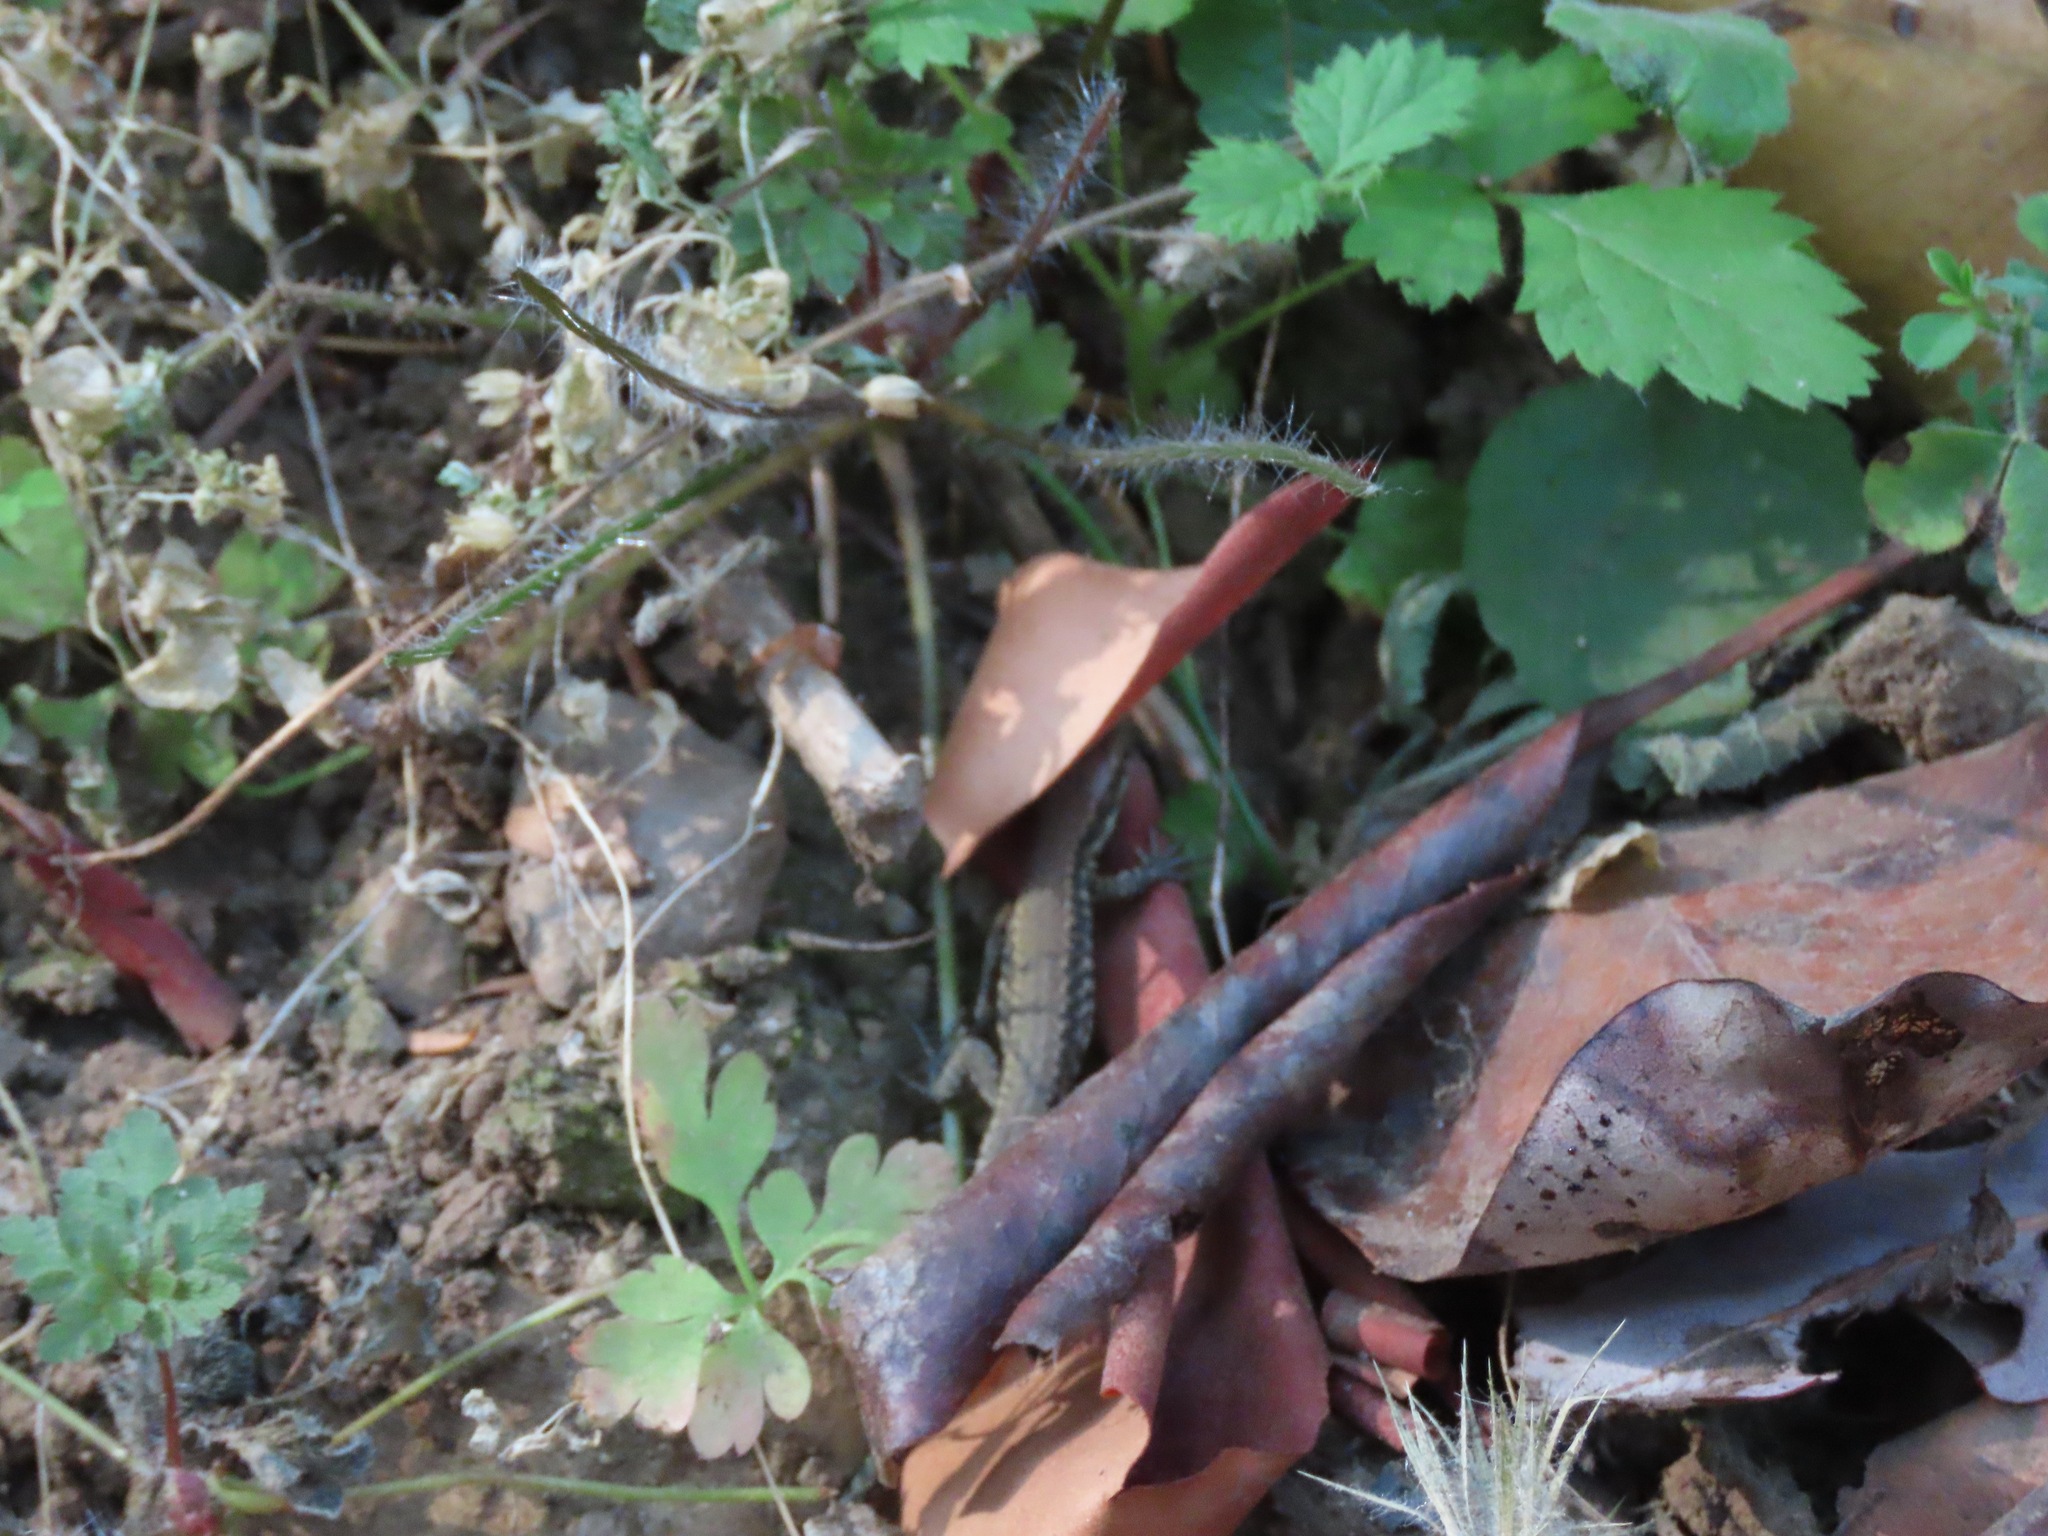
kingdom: Animalia
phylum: Chordata
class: Squamata
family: Lacertidae
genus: Podarcis
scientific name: Podarcis muralis
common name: Common wall lizard
